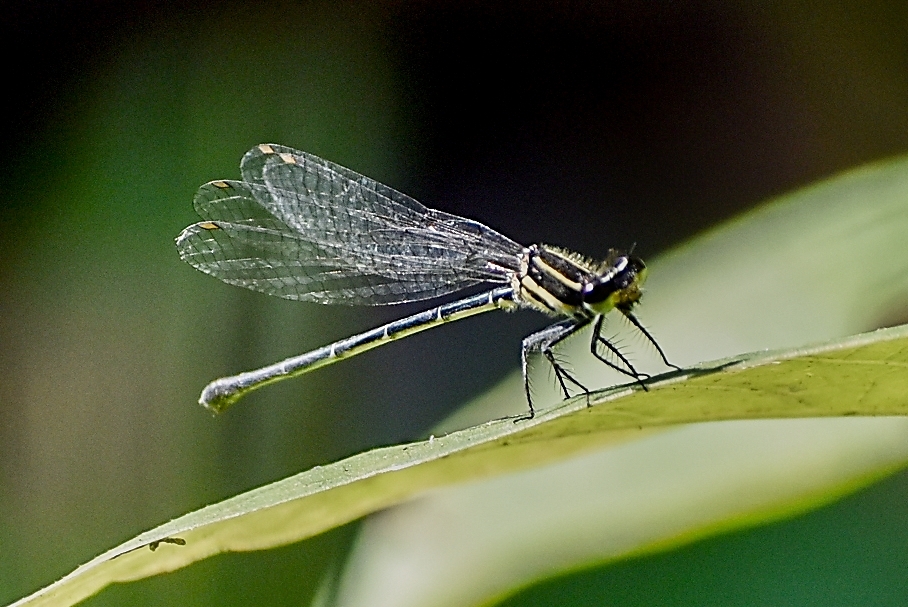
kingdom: Animalia
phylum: Arthropoda
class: Insecta
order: Odonata
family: Platycnemididae
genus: Onychargia
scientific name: Onychargia atrocyana
